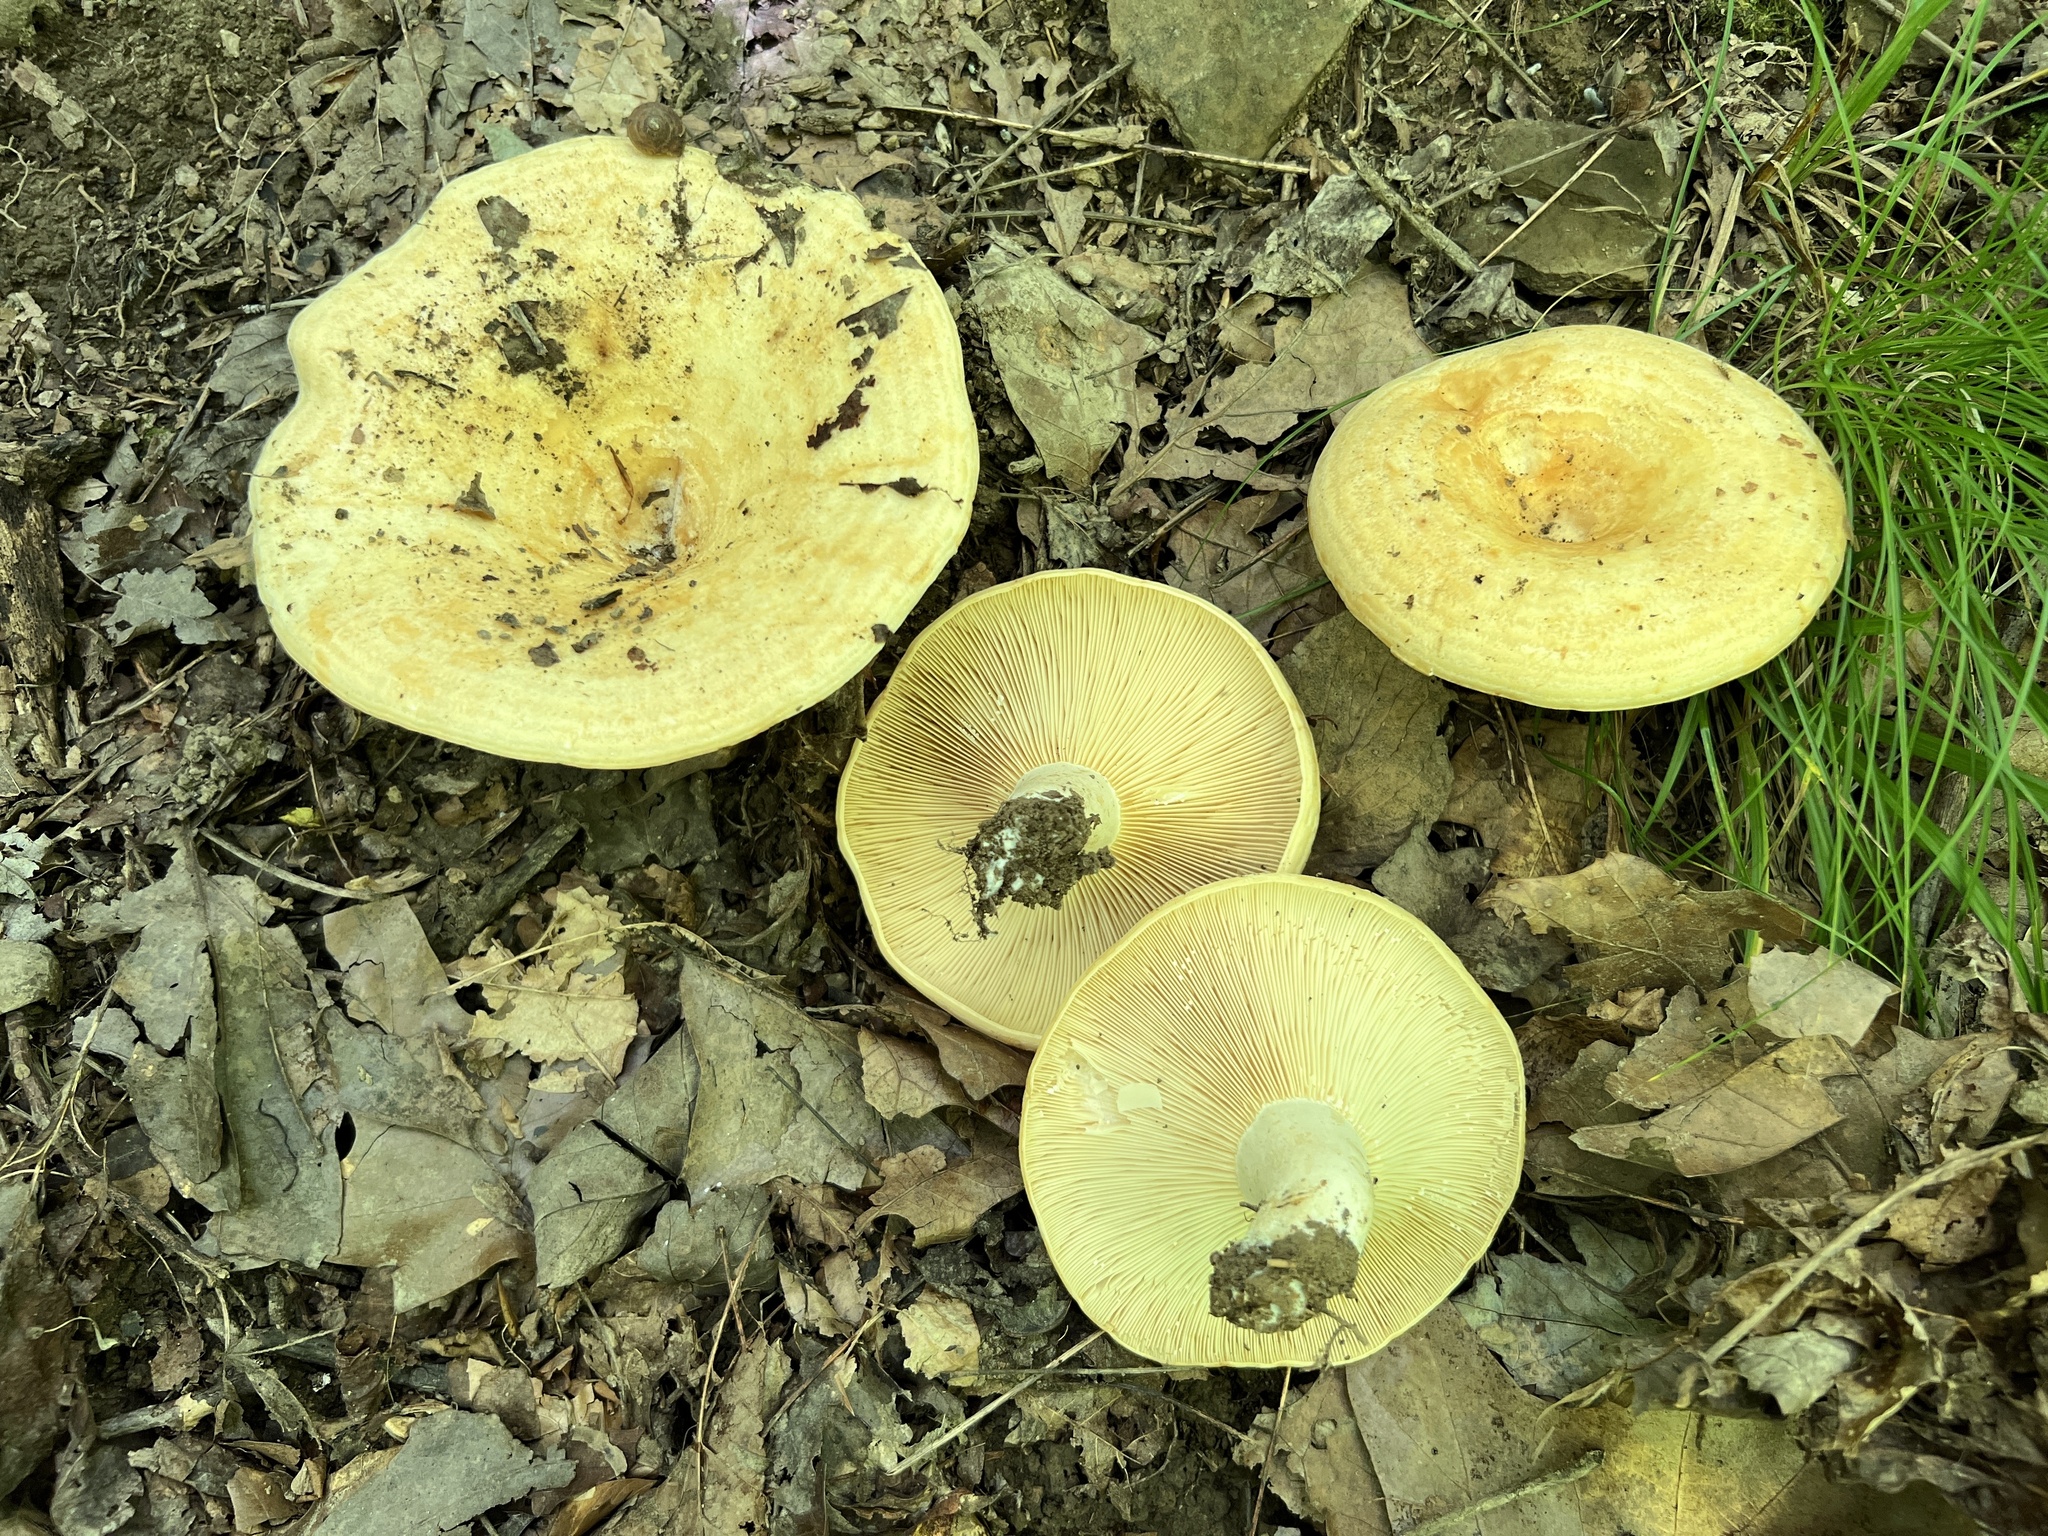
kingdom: Fungi
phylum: Basidiomycota
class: Agaricomycetes
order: Russulales
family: Russulaceae
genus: Lactarius
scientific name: Lactarius psammicola
